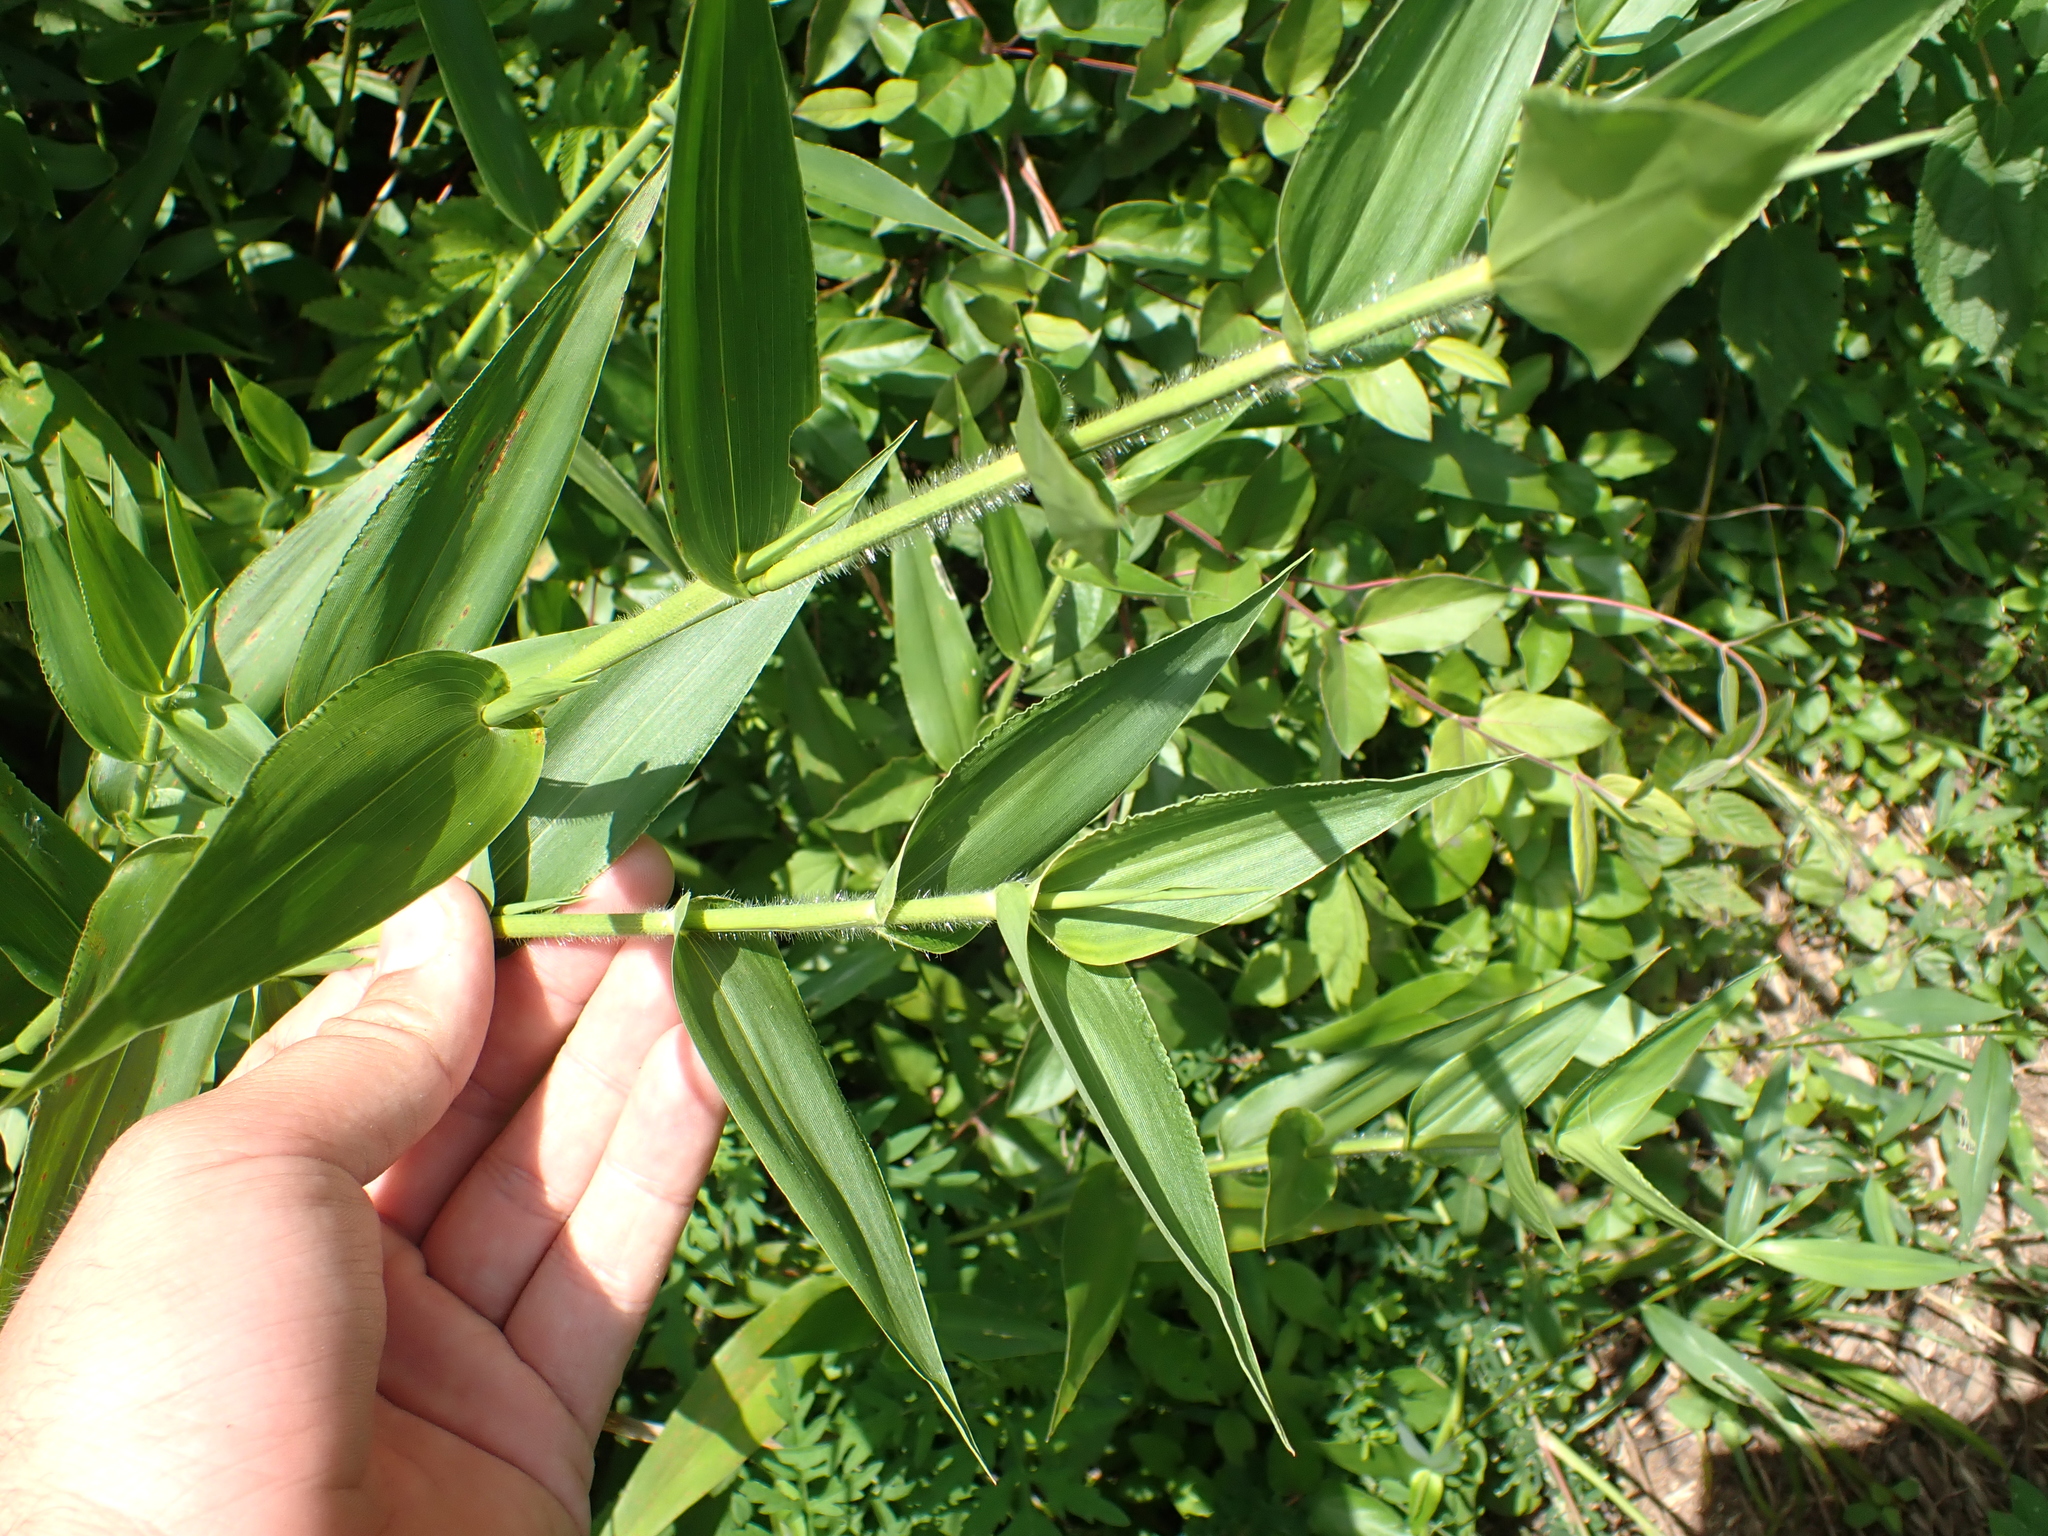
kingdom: Plantae
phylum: Tracheophyta
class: Liliopsida
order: Poales
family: Poaceae
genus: Dichanthelium
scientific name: Dichanthelium clandestinum
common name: Deer-tongue grass
